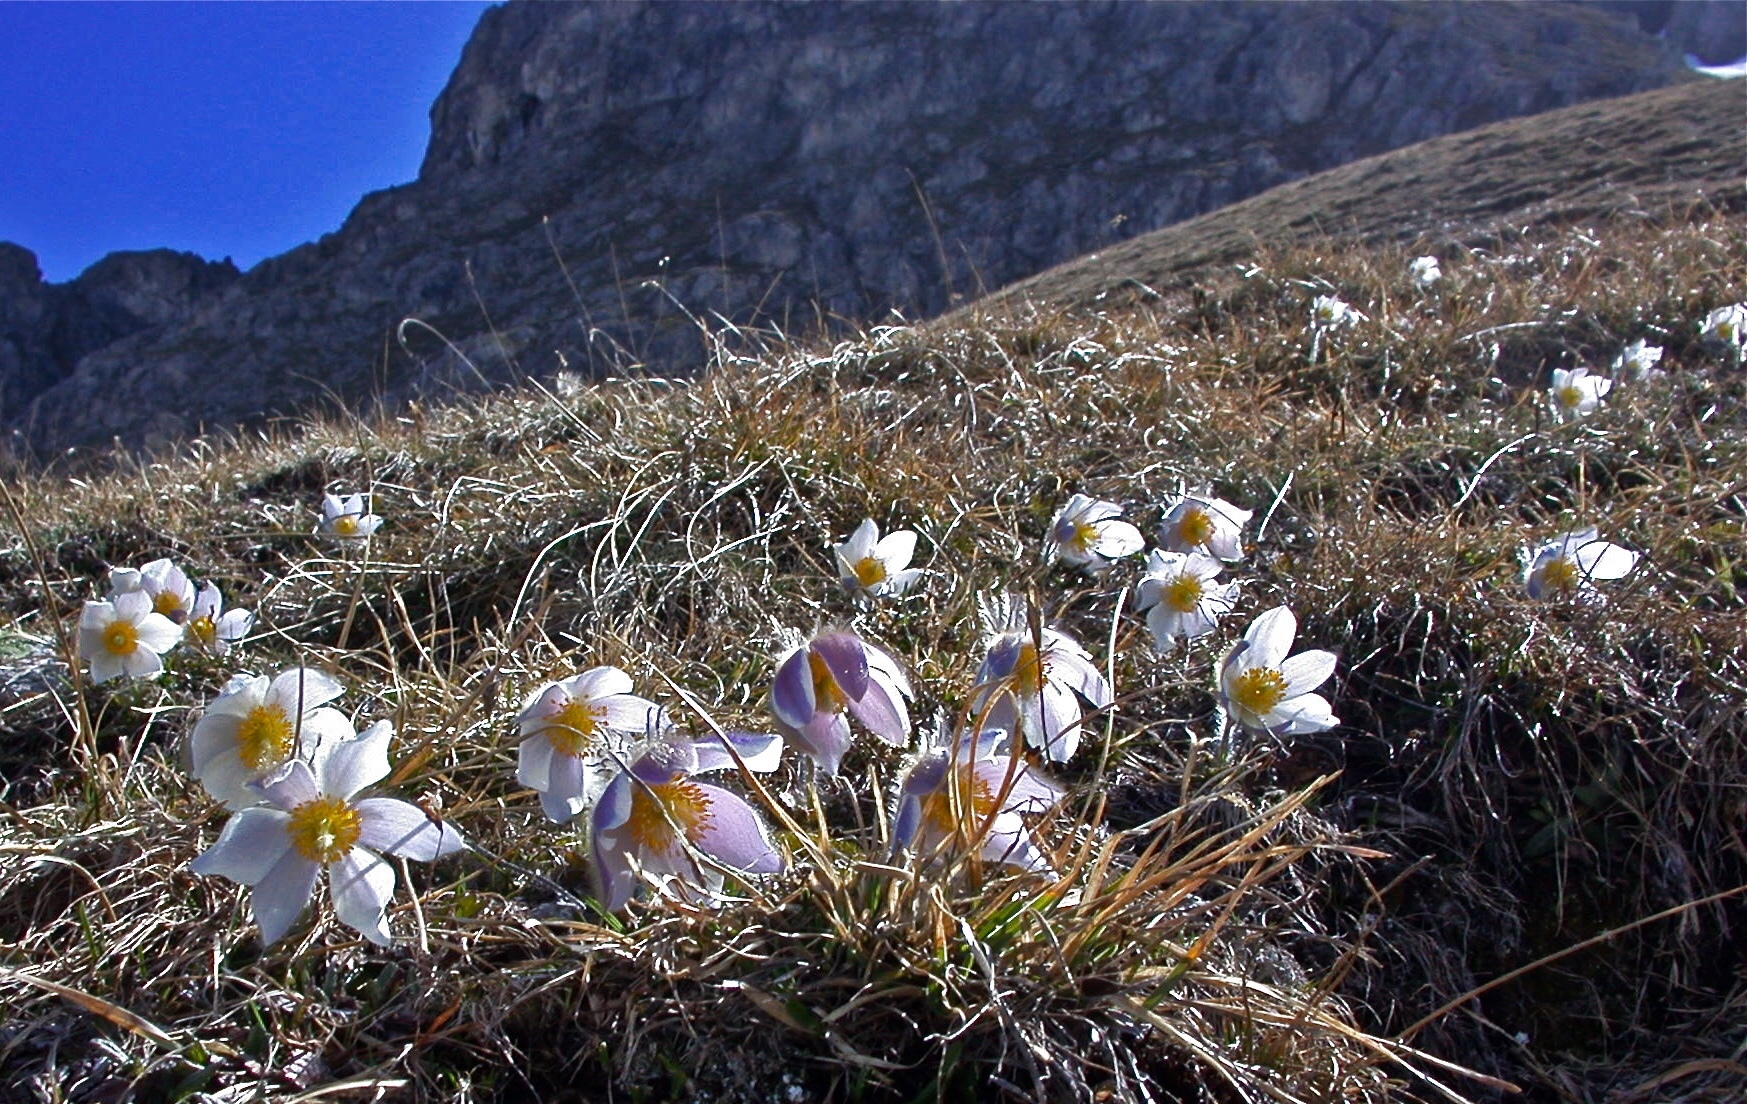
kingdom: Plantae
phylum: Tracheophyta
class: Magnoliopsida
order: Ranunculales
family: Ranunculaceae
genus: Pulsatilla
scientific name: Pulsatilla vernalis
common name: Spring pasque flower
